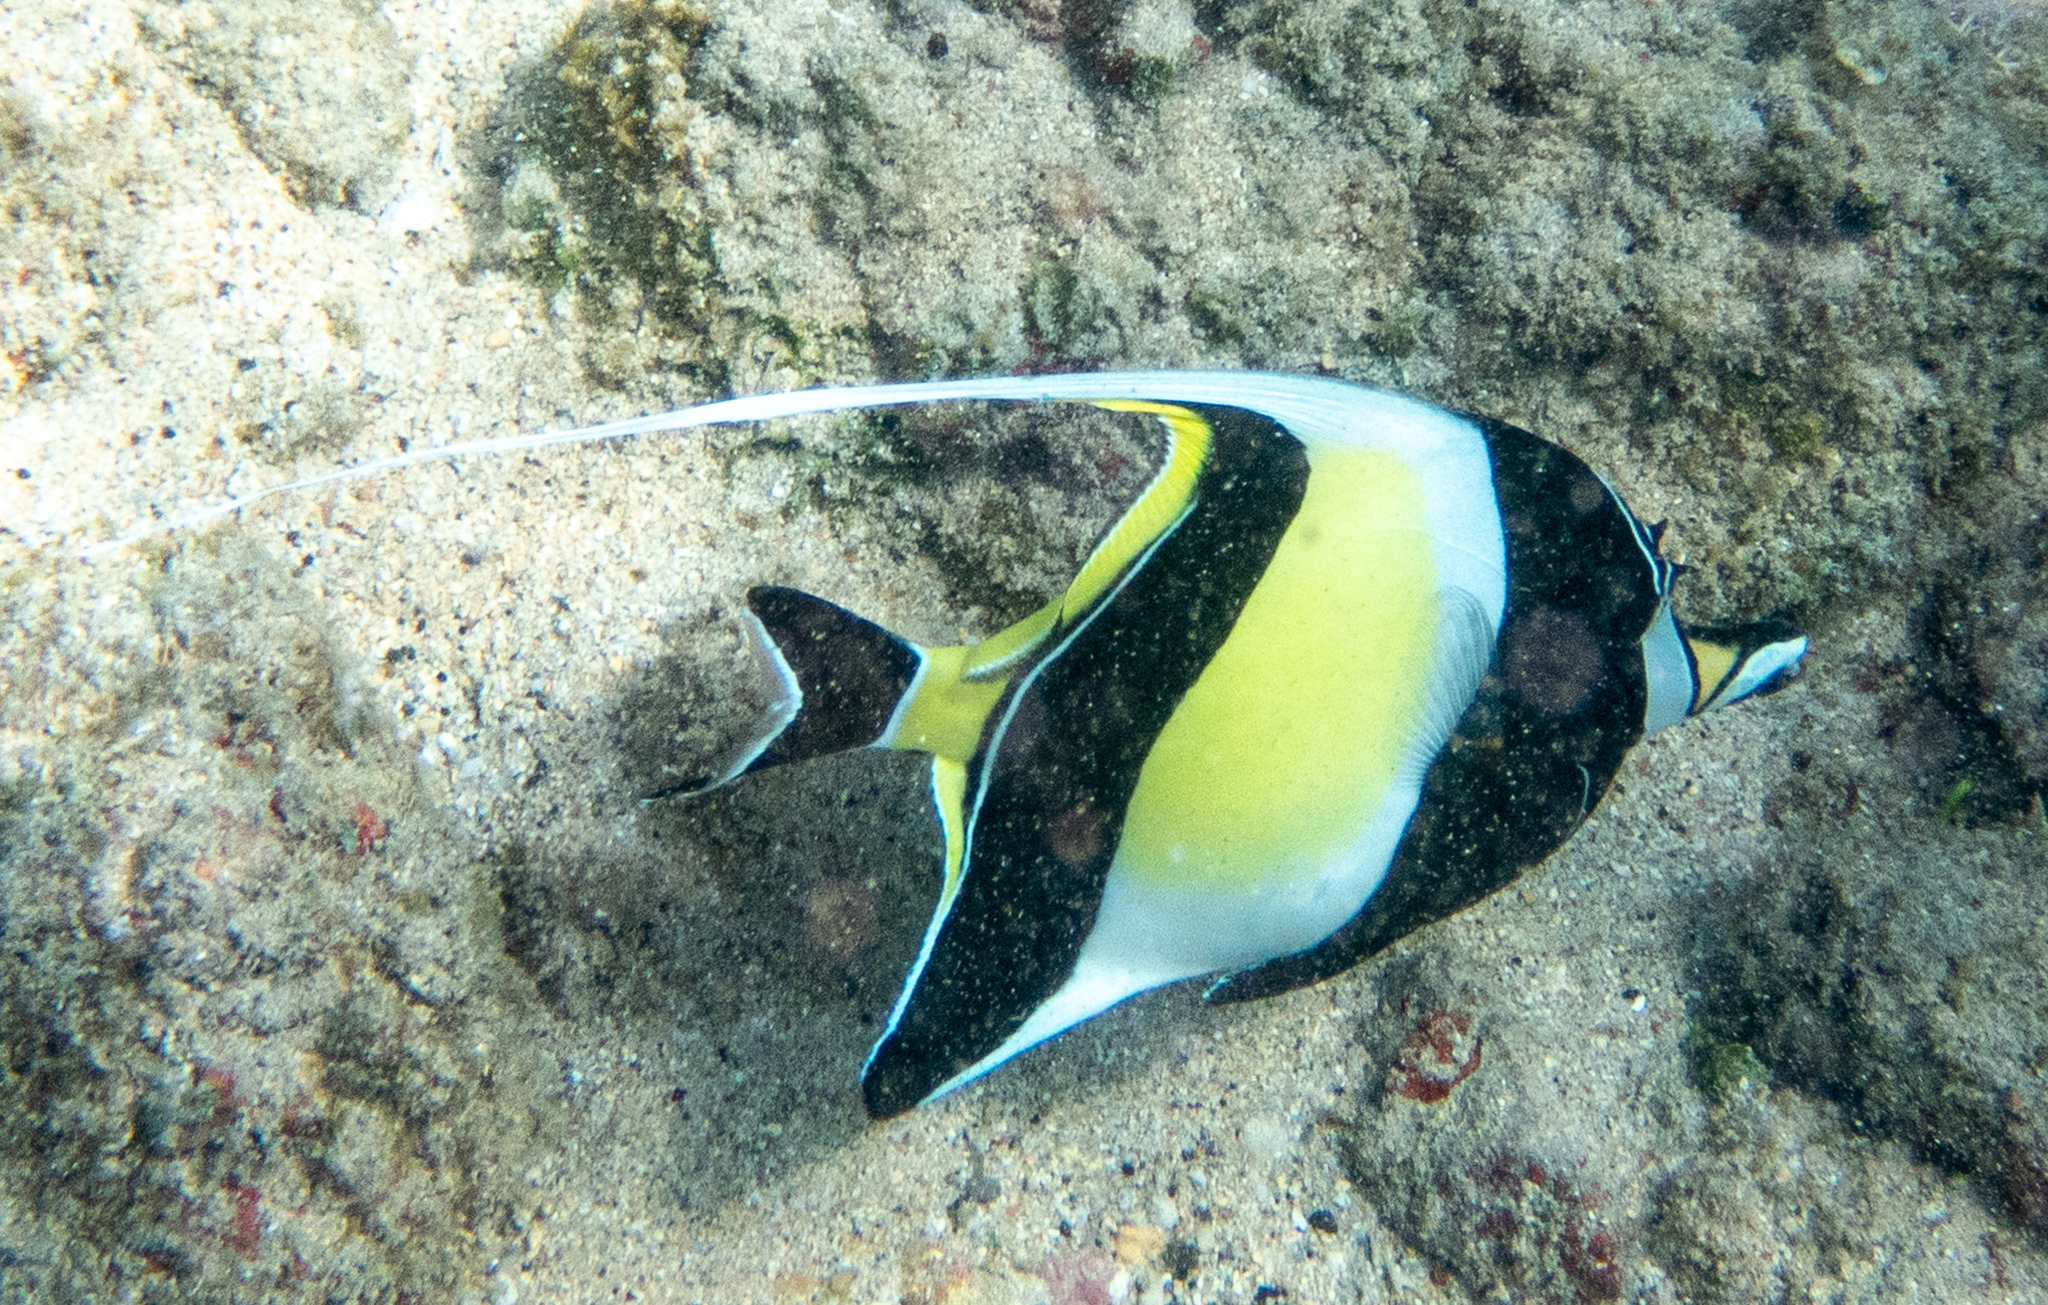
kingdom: Animalia
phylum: Chordata
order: Perciformes
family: Zanclidae
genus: Zanclus
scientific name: Zanclus cornutus
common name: Moorish idol
